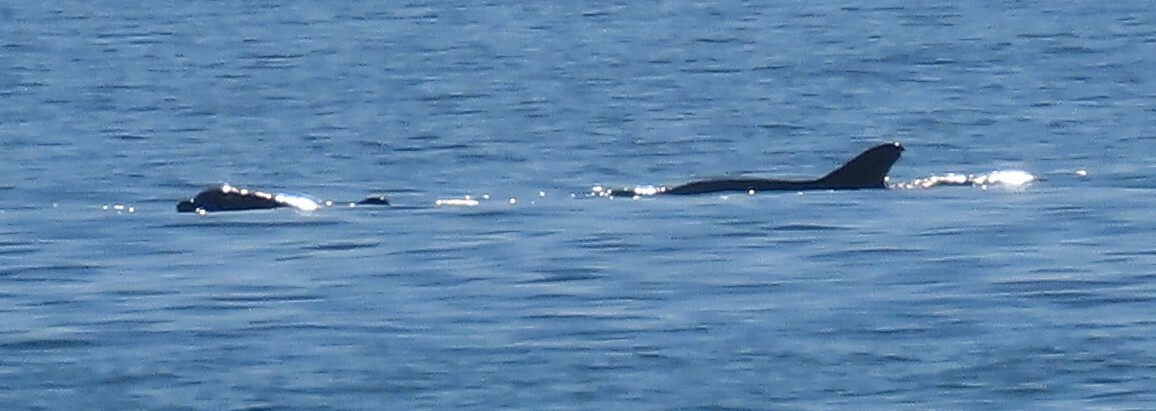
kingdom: Animalia
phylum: Chordata
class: Mammalia
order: Cetacea
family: Delphinidae
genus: Tursiops
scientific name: Tursiops truncatus
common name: Bottlenose dolphin
